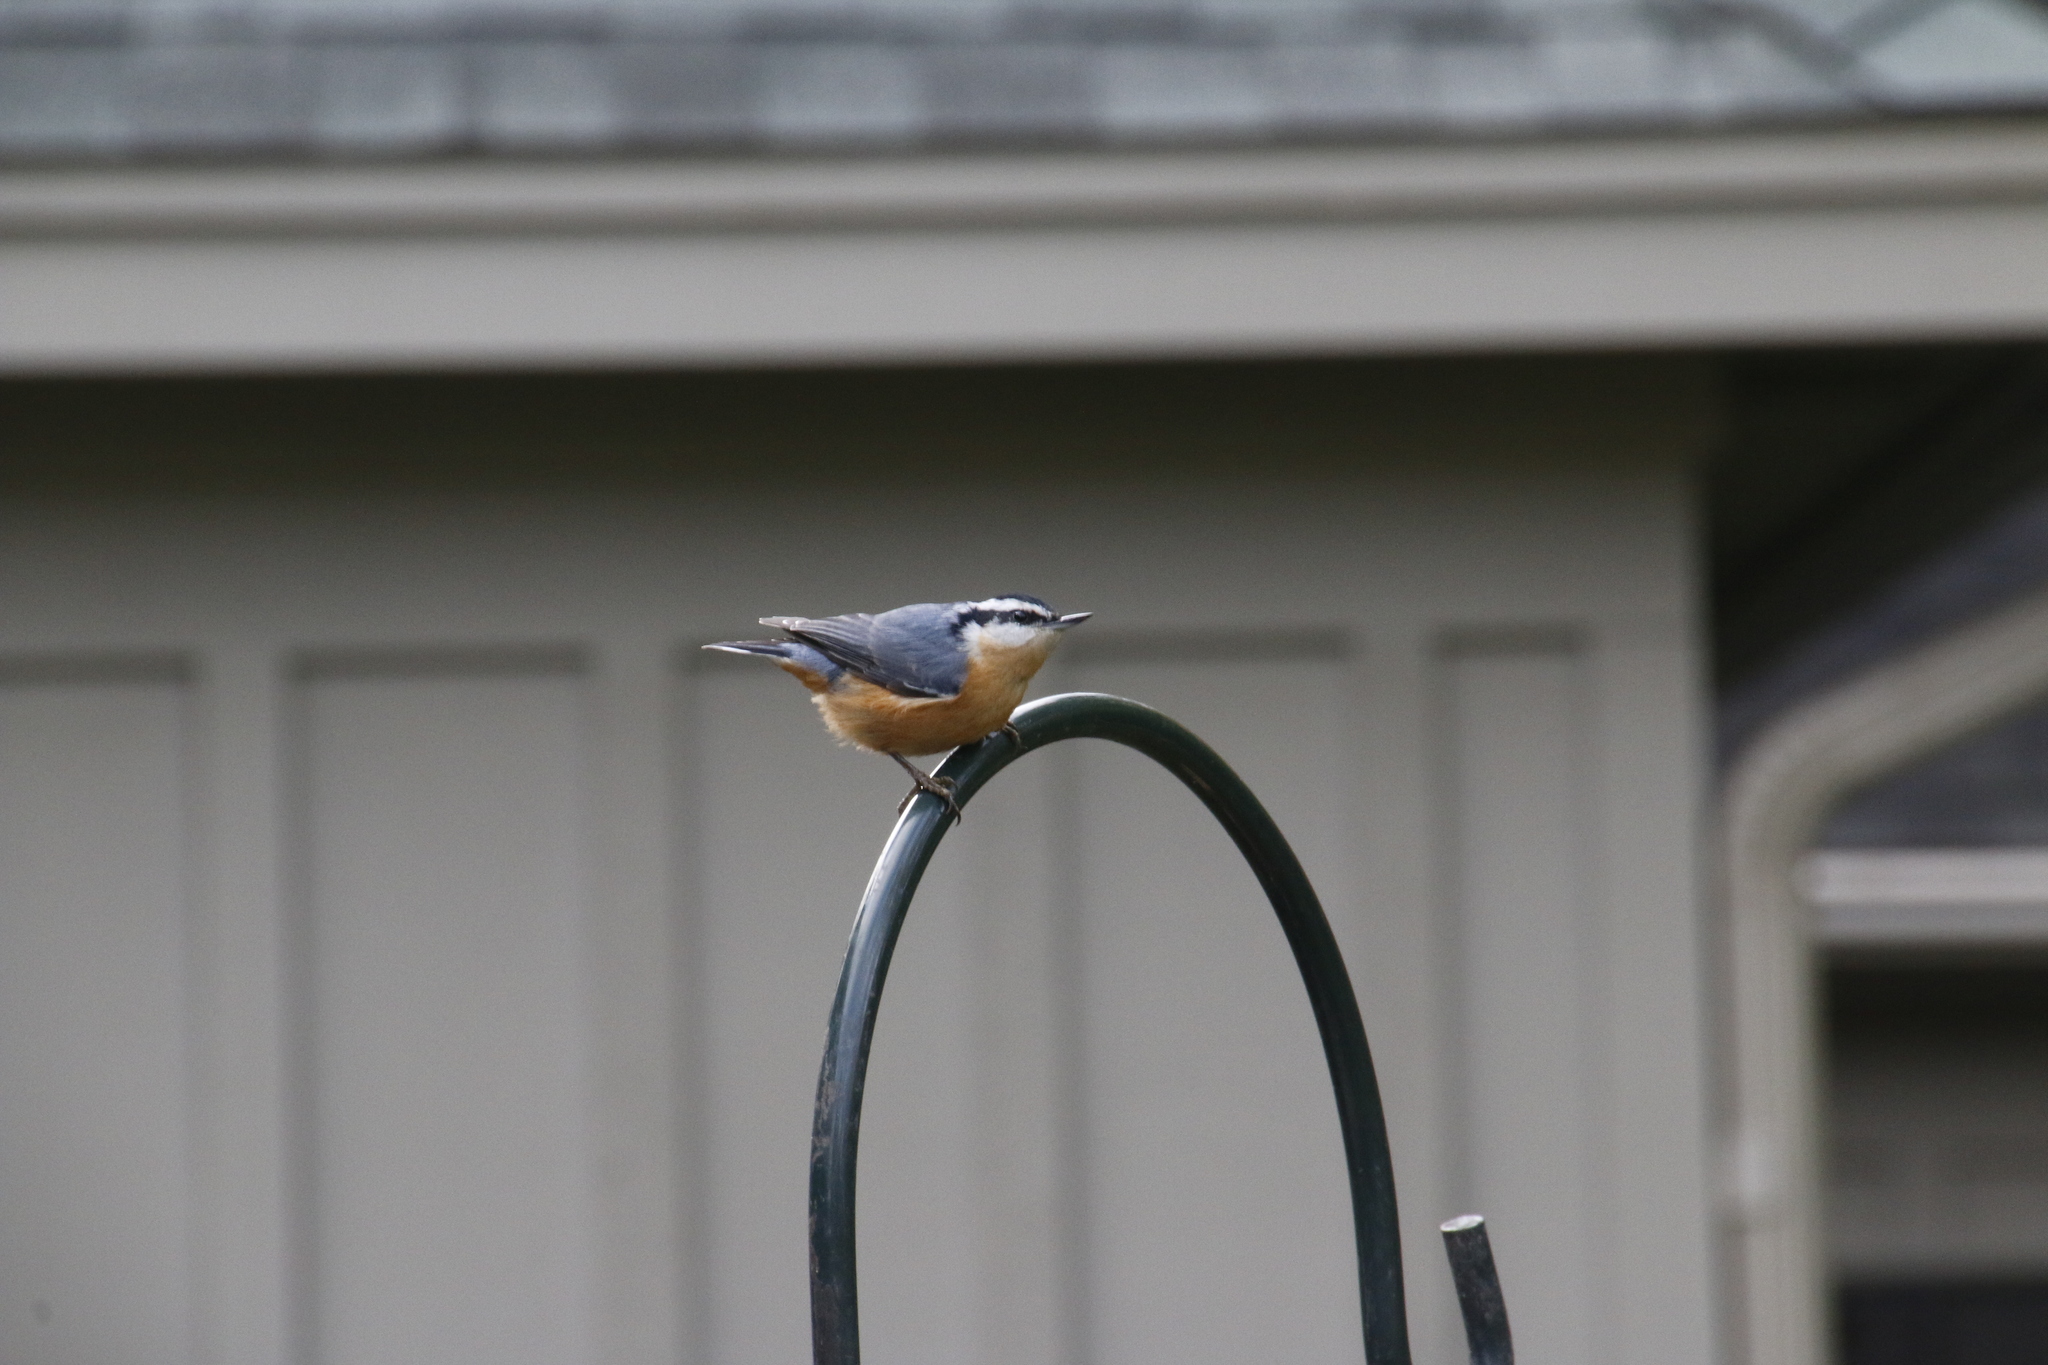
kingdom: Animalia
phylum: Chordata
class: Aves
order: Passeriformes
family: Sittidae
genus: Sitta
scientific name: Sitta canadensis
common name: Red-breasted nuthatch
